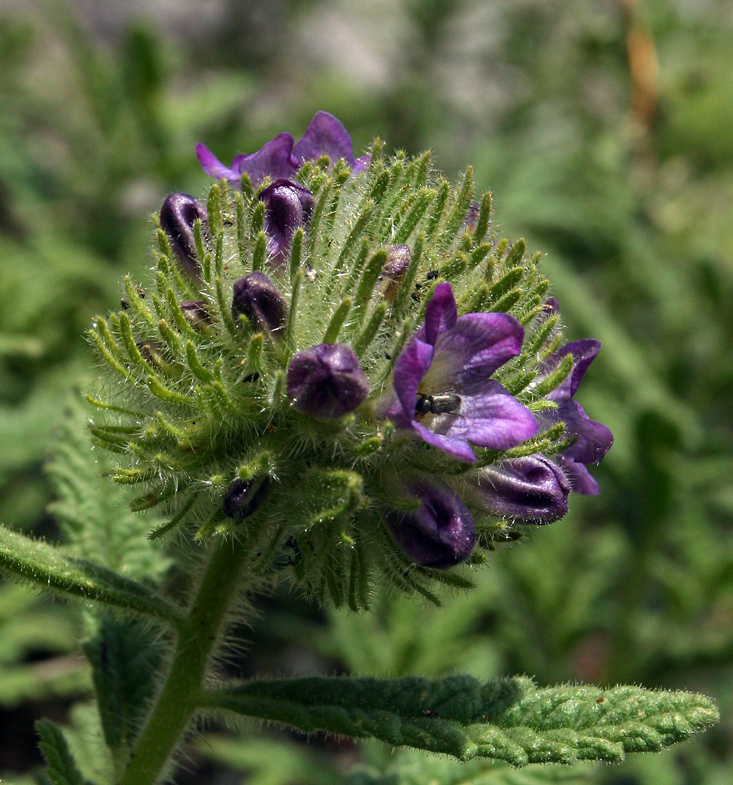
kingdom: Plantae
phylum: Tracheophyta
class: Magnoliopsida
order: Boraginales
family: Namaceae
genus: Nama
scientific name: Nama rothrockii
